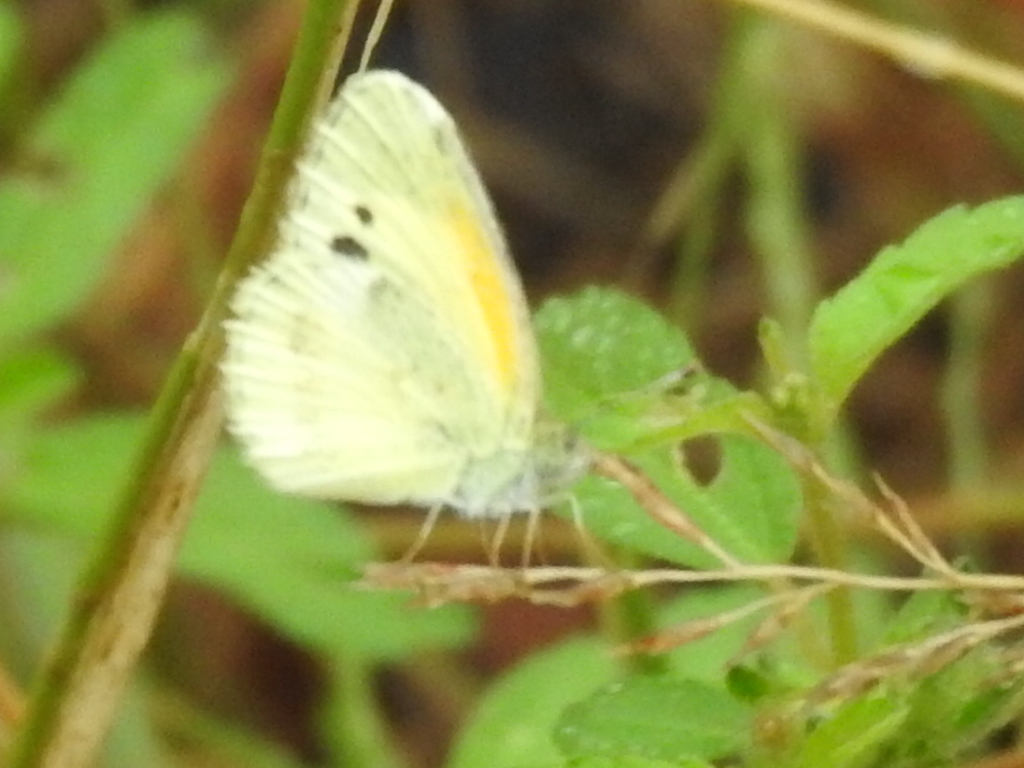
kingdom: Animalia
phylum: Arthropoda
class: Insecta
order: Lepidoptera
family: Pieridae
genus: Nathalis
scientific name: Nathalis iole
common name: Dainty sulphur
